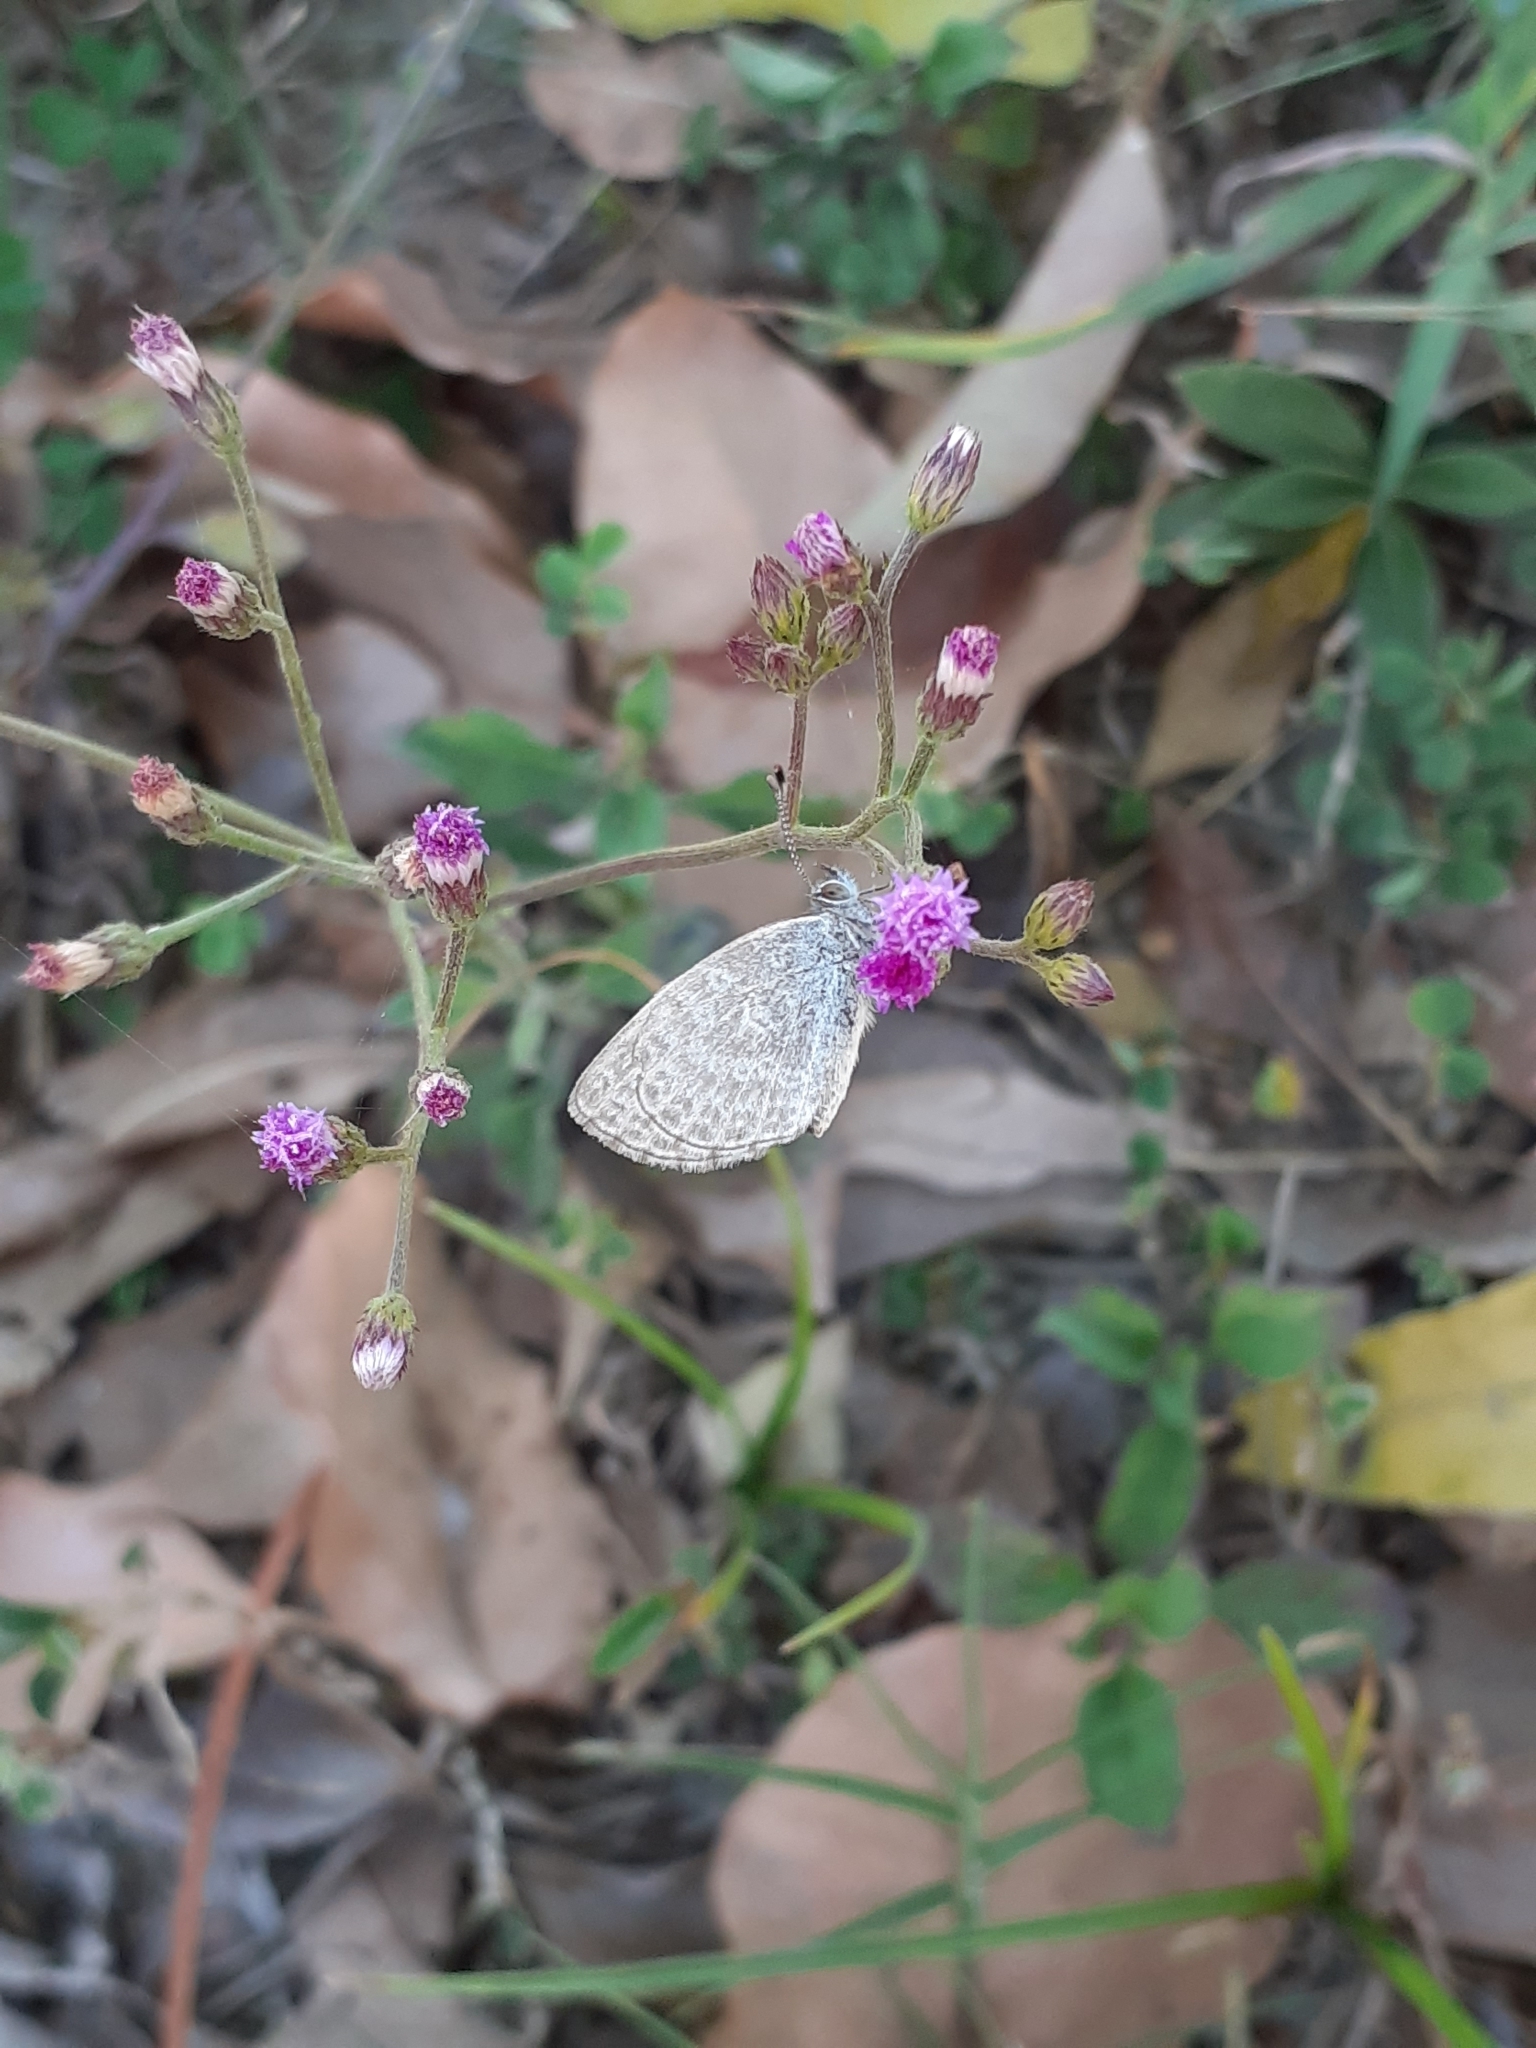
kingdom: Animalia
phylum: Arthropoda
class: Insecta
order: Lepidoptera
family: Lycaenidae
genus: Pseudozizeeria
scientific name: Pseudozizeeria maha
